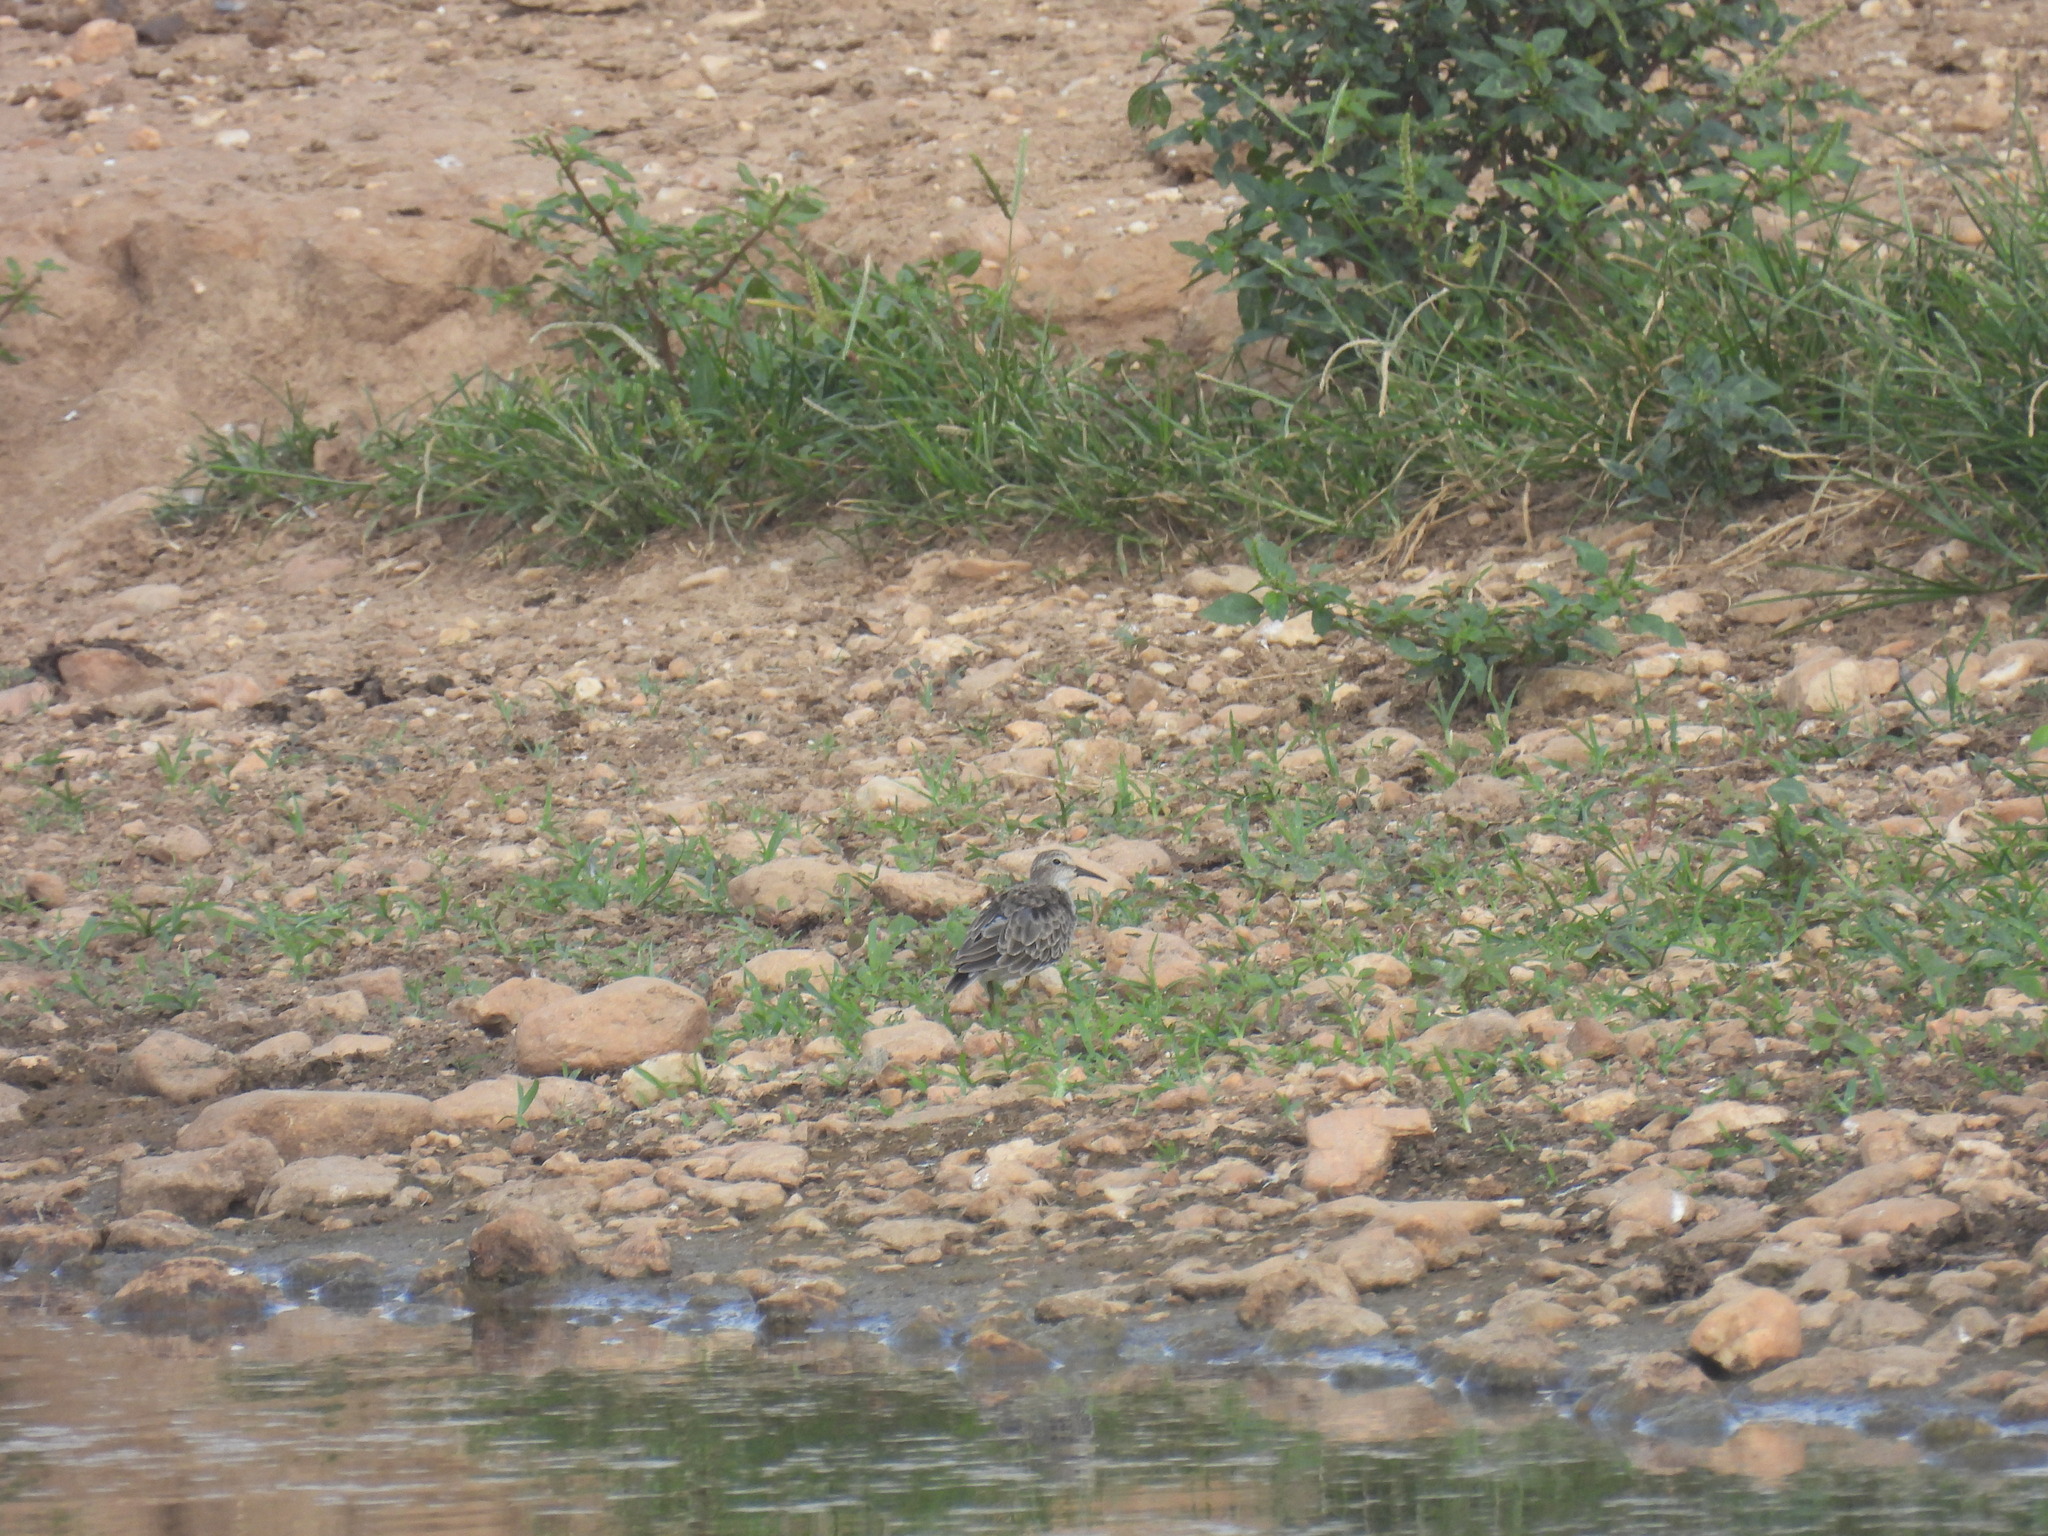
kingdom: Animalia
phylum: Chordata
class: Aves
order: Charadriiformes
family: Scolopacidae
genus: Calidris
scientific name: Calidris minutilla
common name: Least sandpiper
